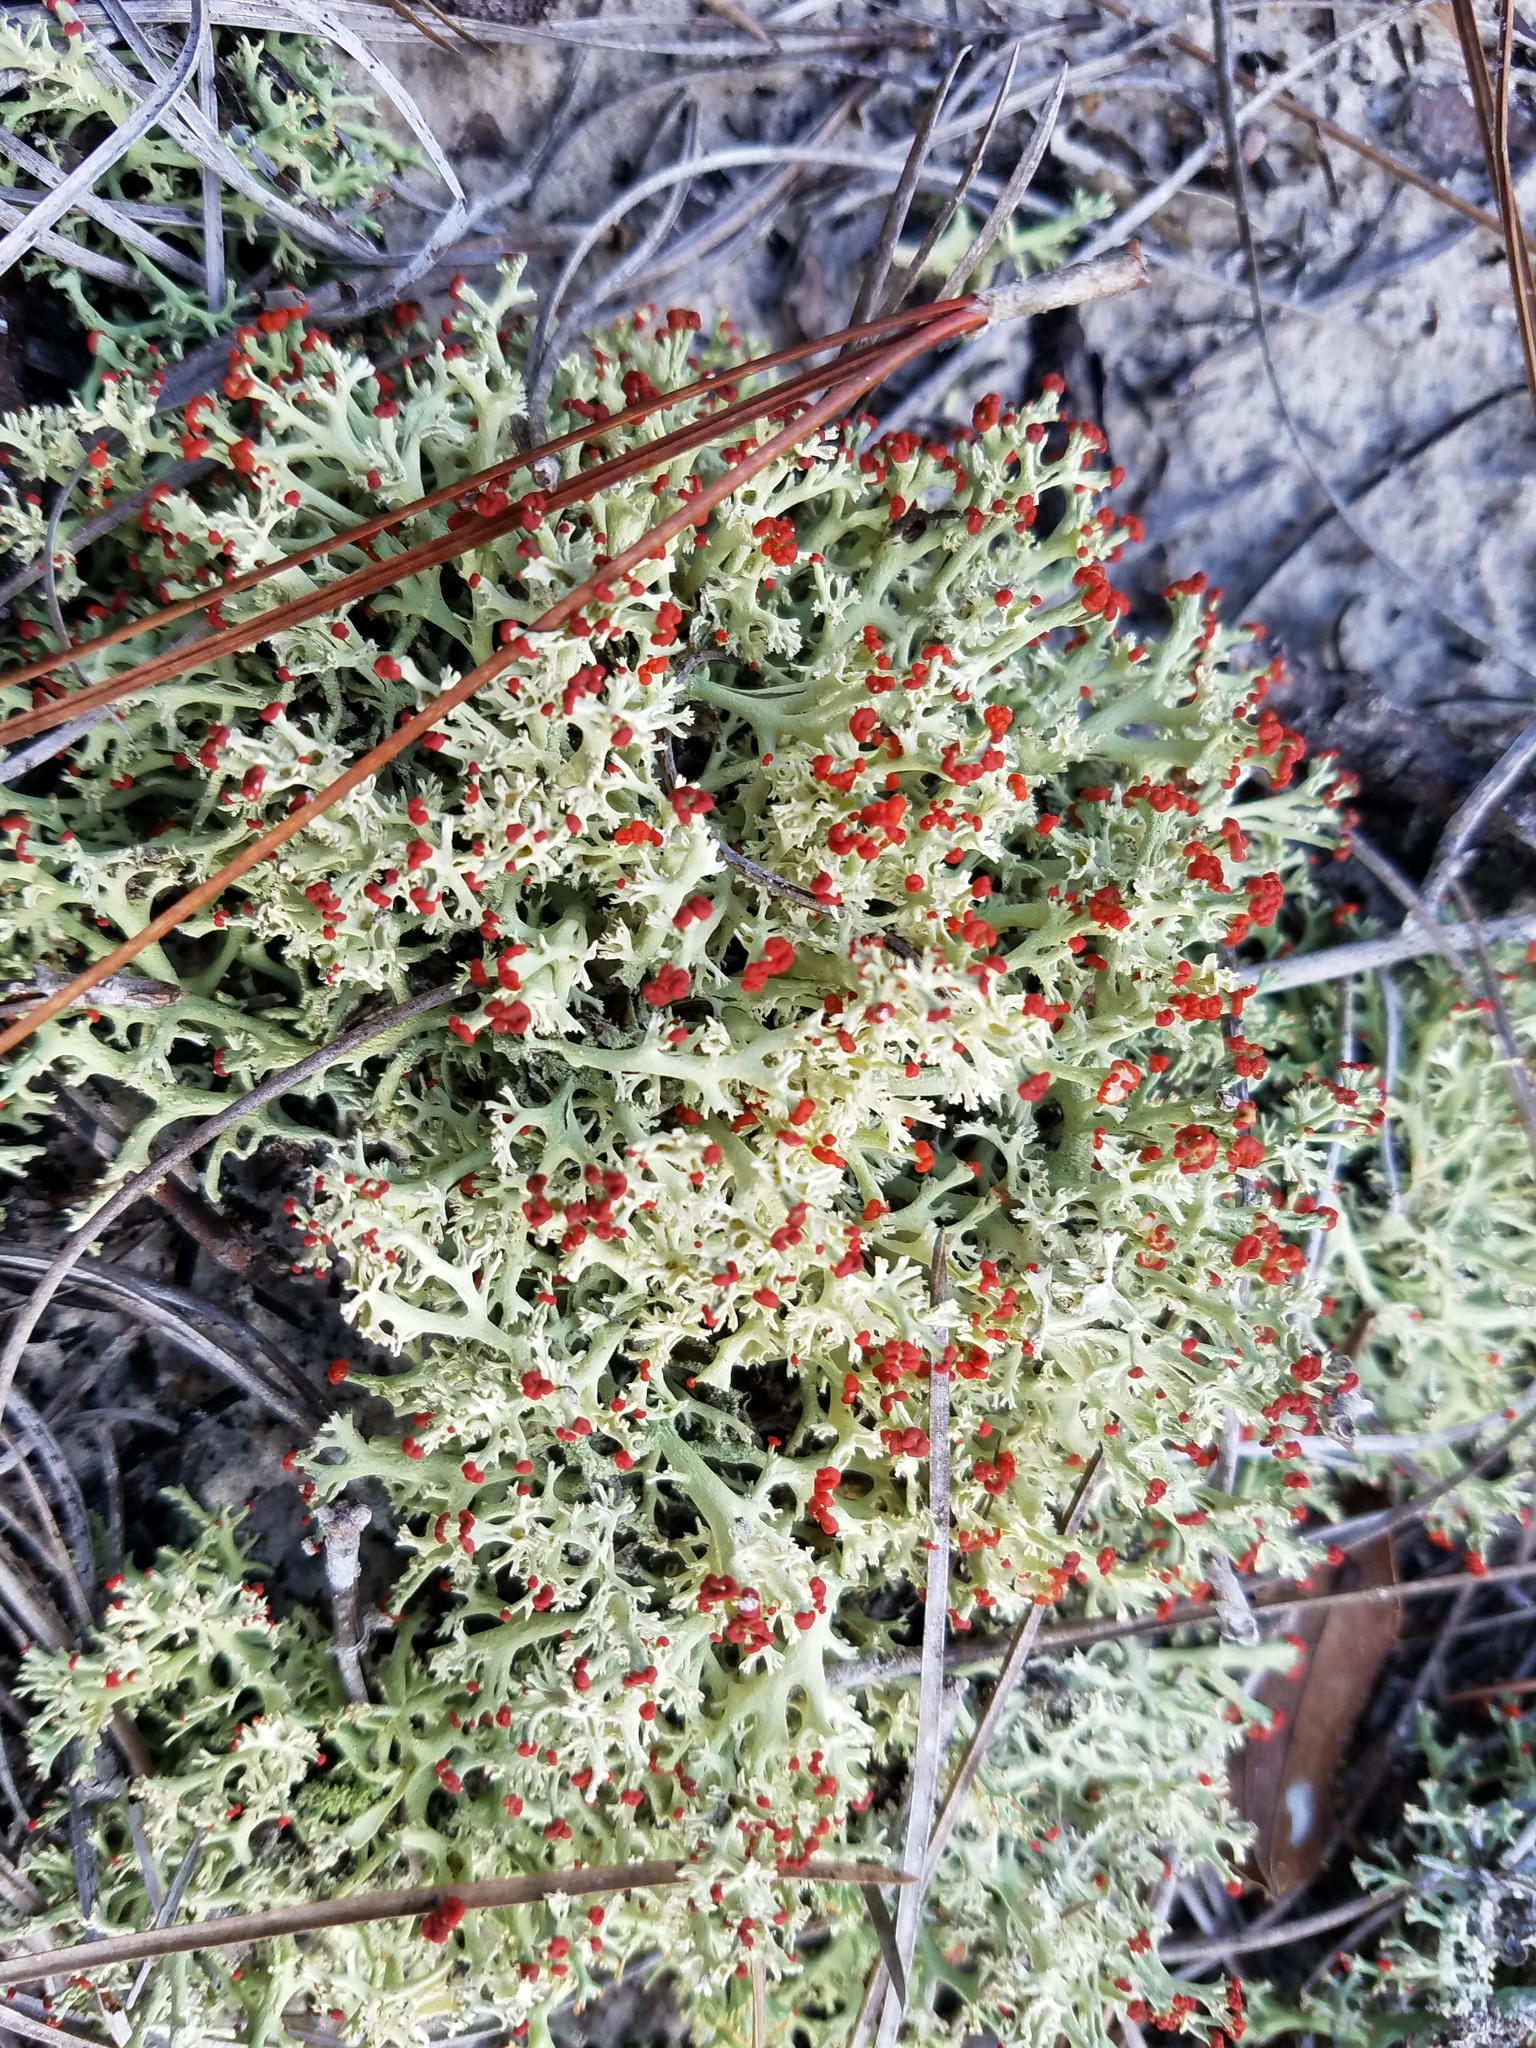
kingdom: Fungi
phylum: Ascomycota
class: Lecanoromycetes
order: Lecanorales
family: Cladoniaceae
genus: Cladonia
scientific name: Cladonia leporina
